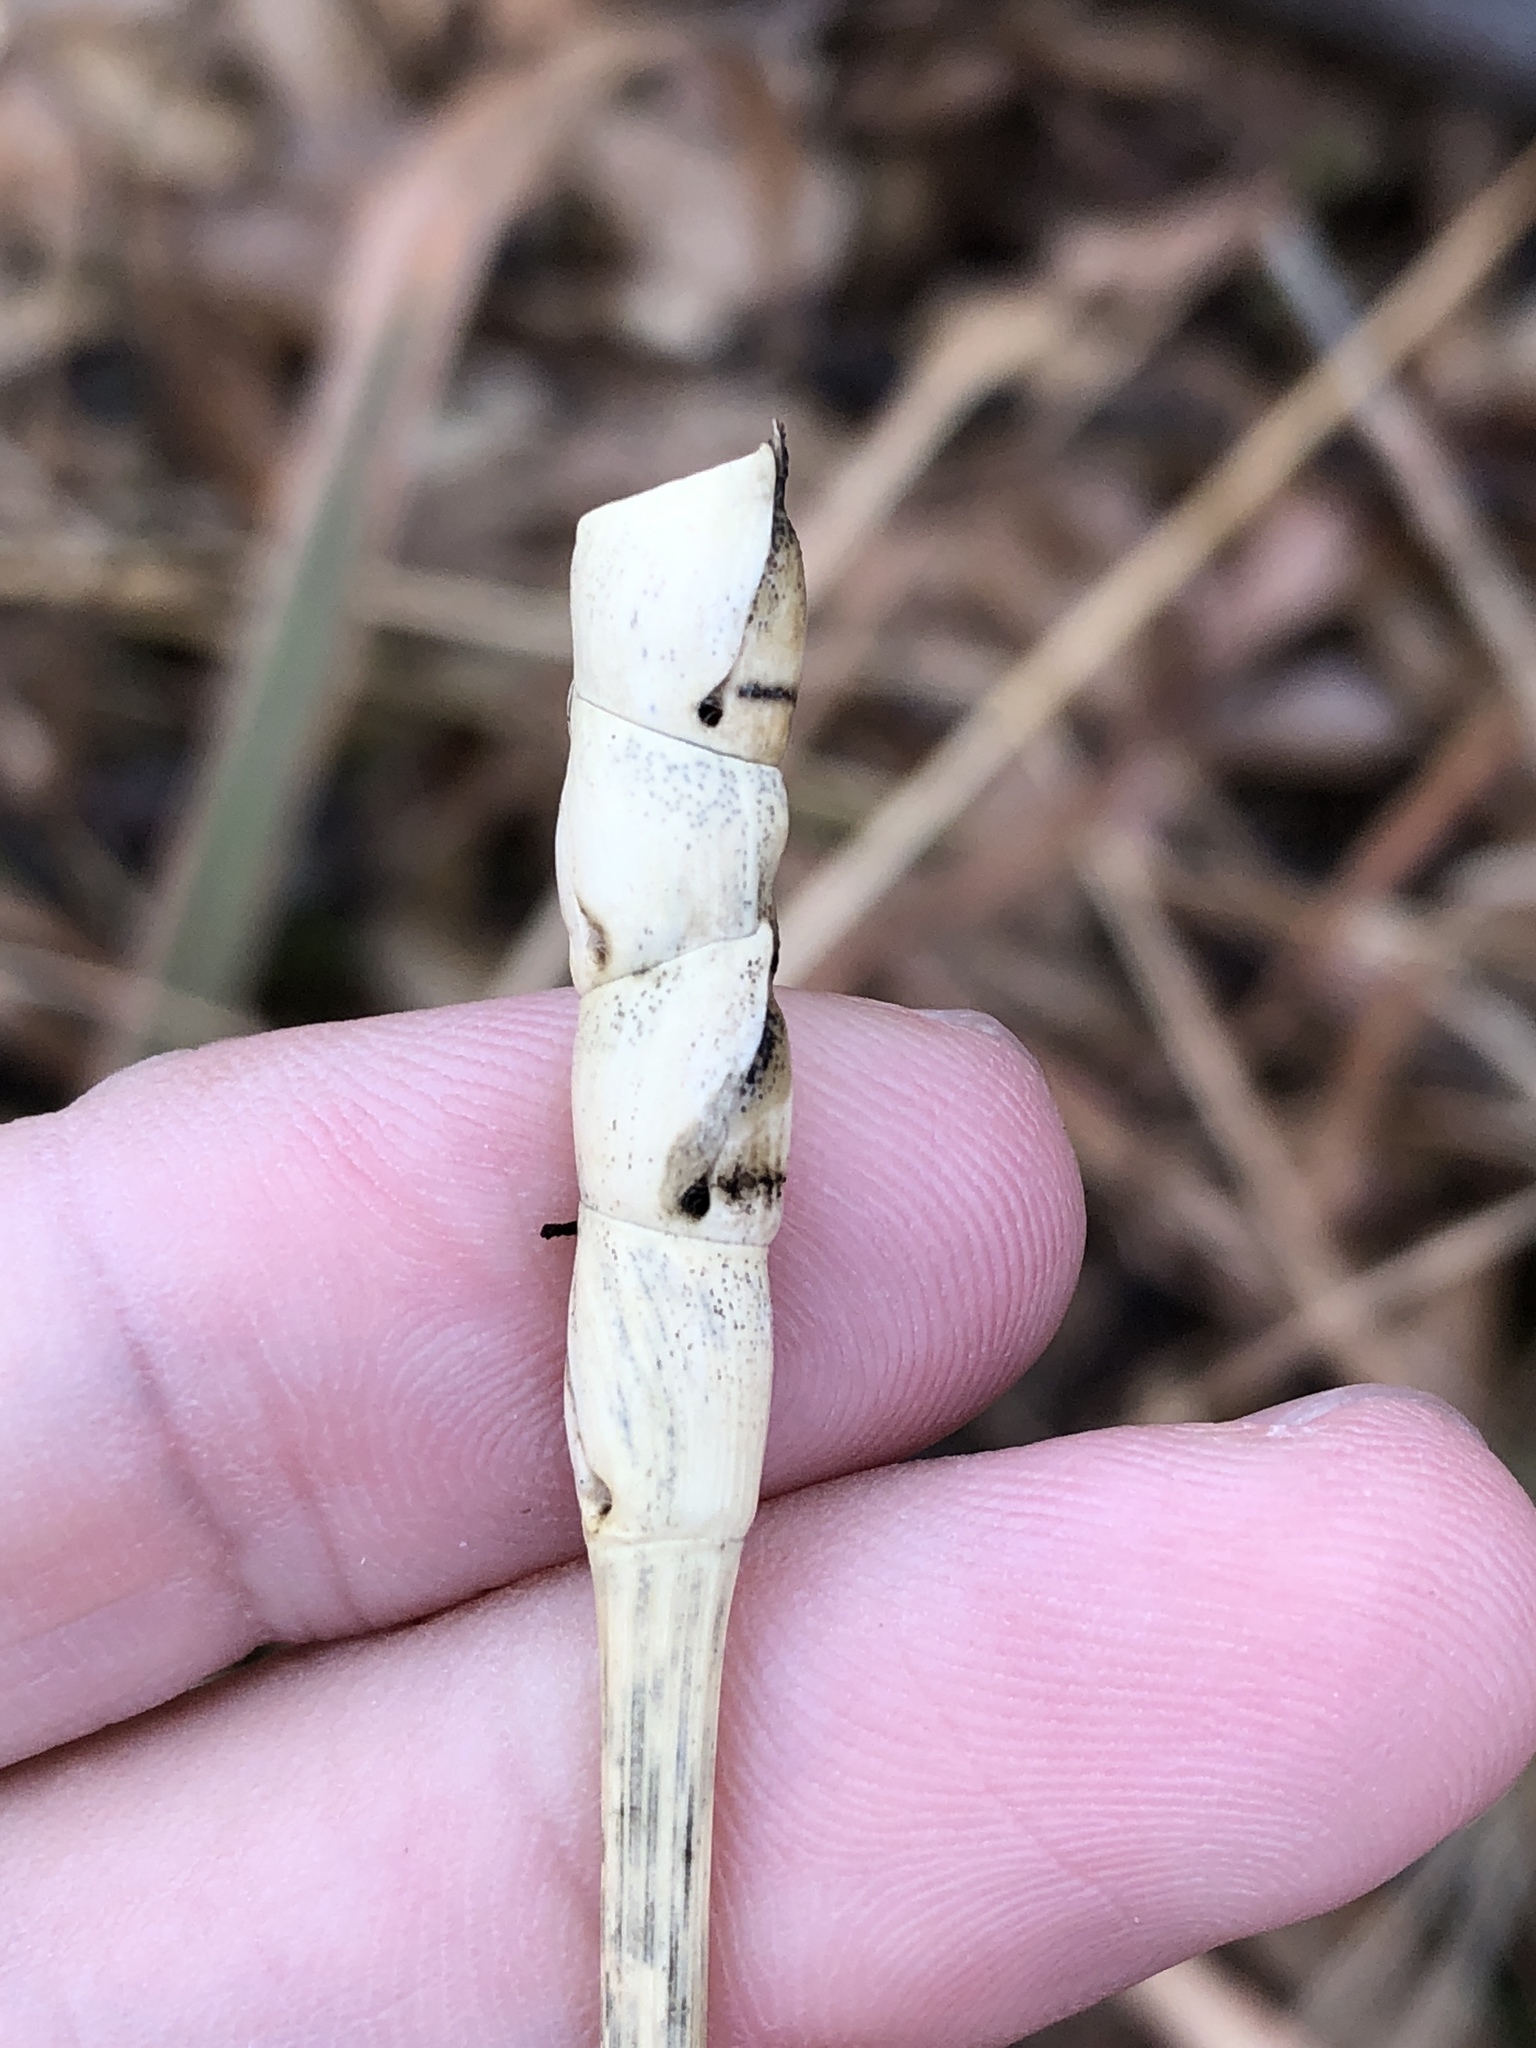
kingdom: Plantae
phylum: Tracheophyta
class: Liliopsida
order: Poales
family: Poaceae
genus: Tripsacum
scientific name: Tripsacum dactyloides
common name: Buffalo-grass
